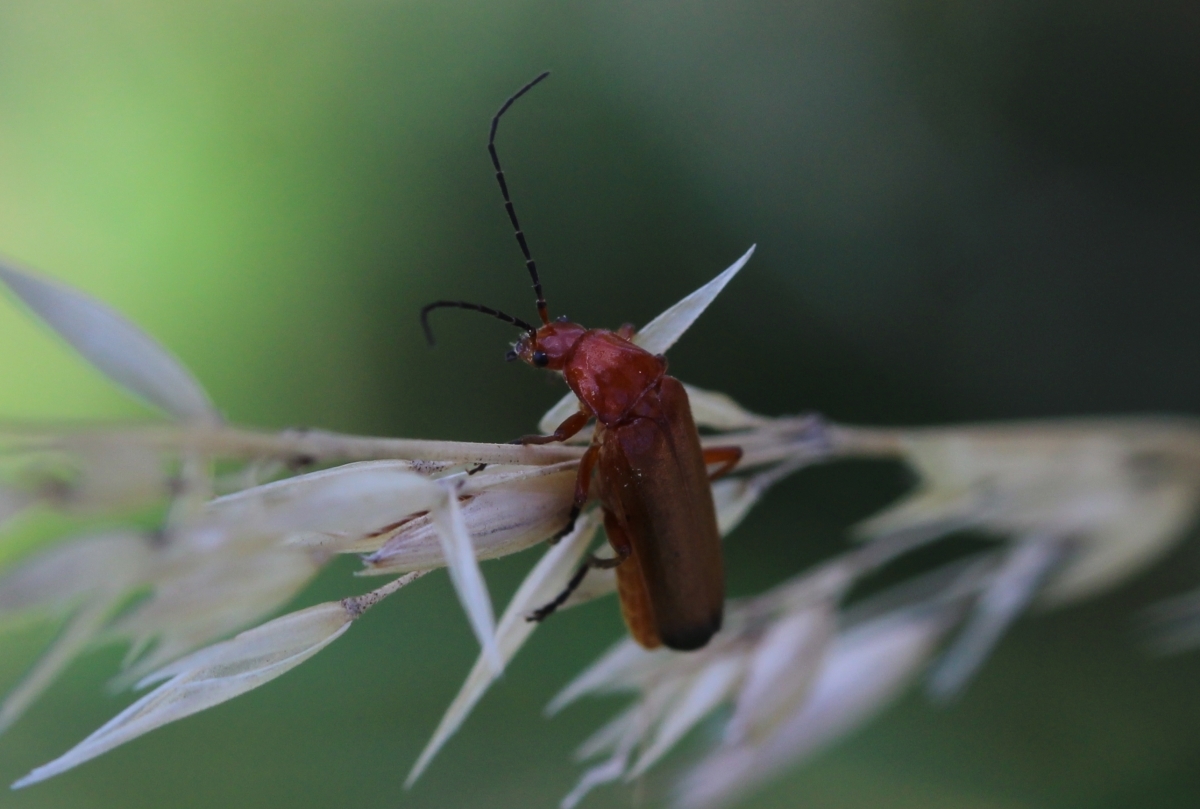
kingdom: Animalia
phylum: Arthropoda
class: Insecta
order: Coleoptera
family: Cantharidae
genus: Rhagonycha
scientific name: Rhagonycha fulva
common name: Common red soldier beetle
